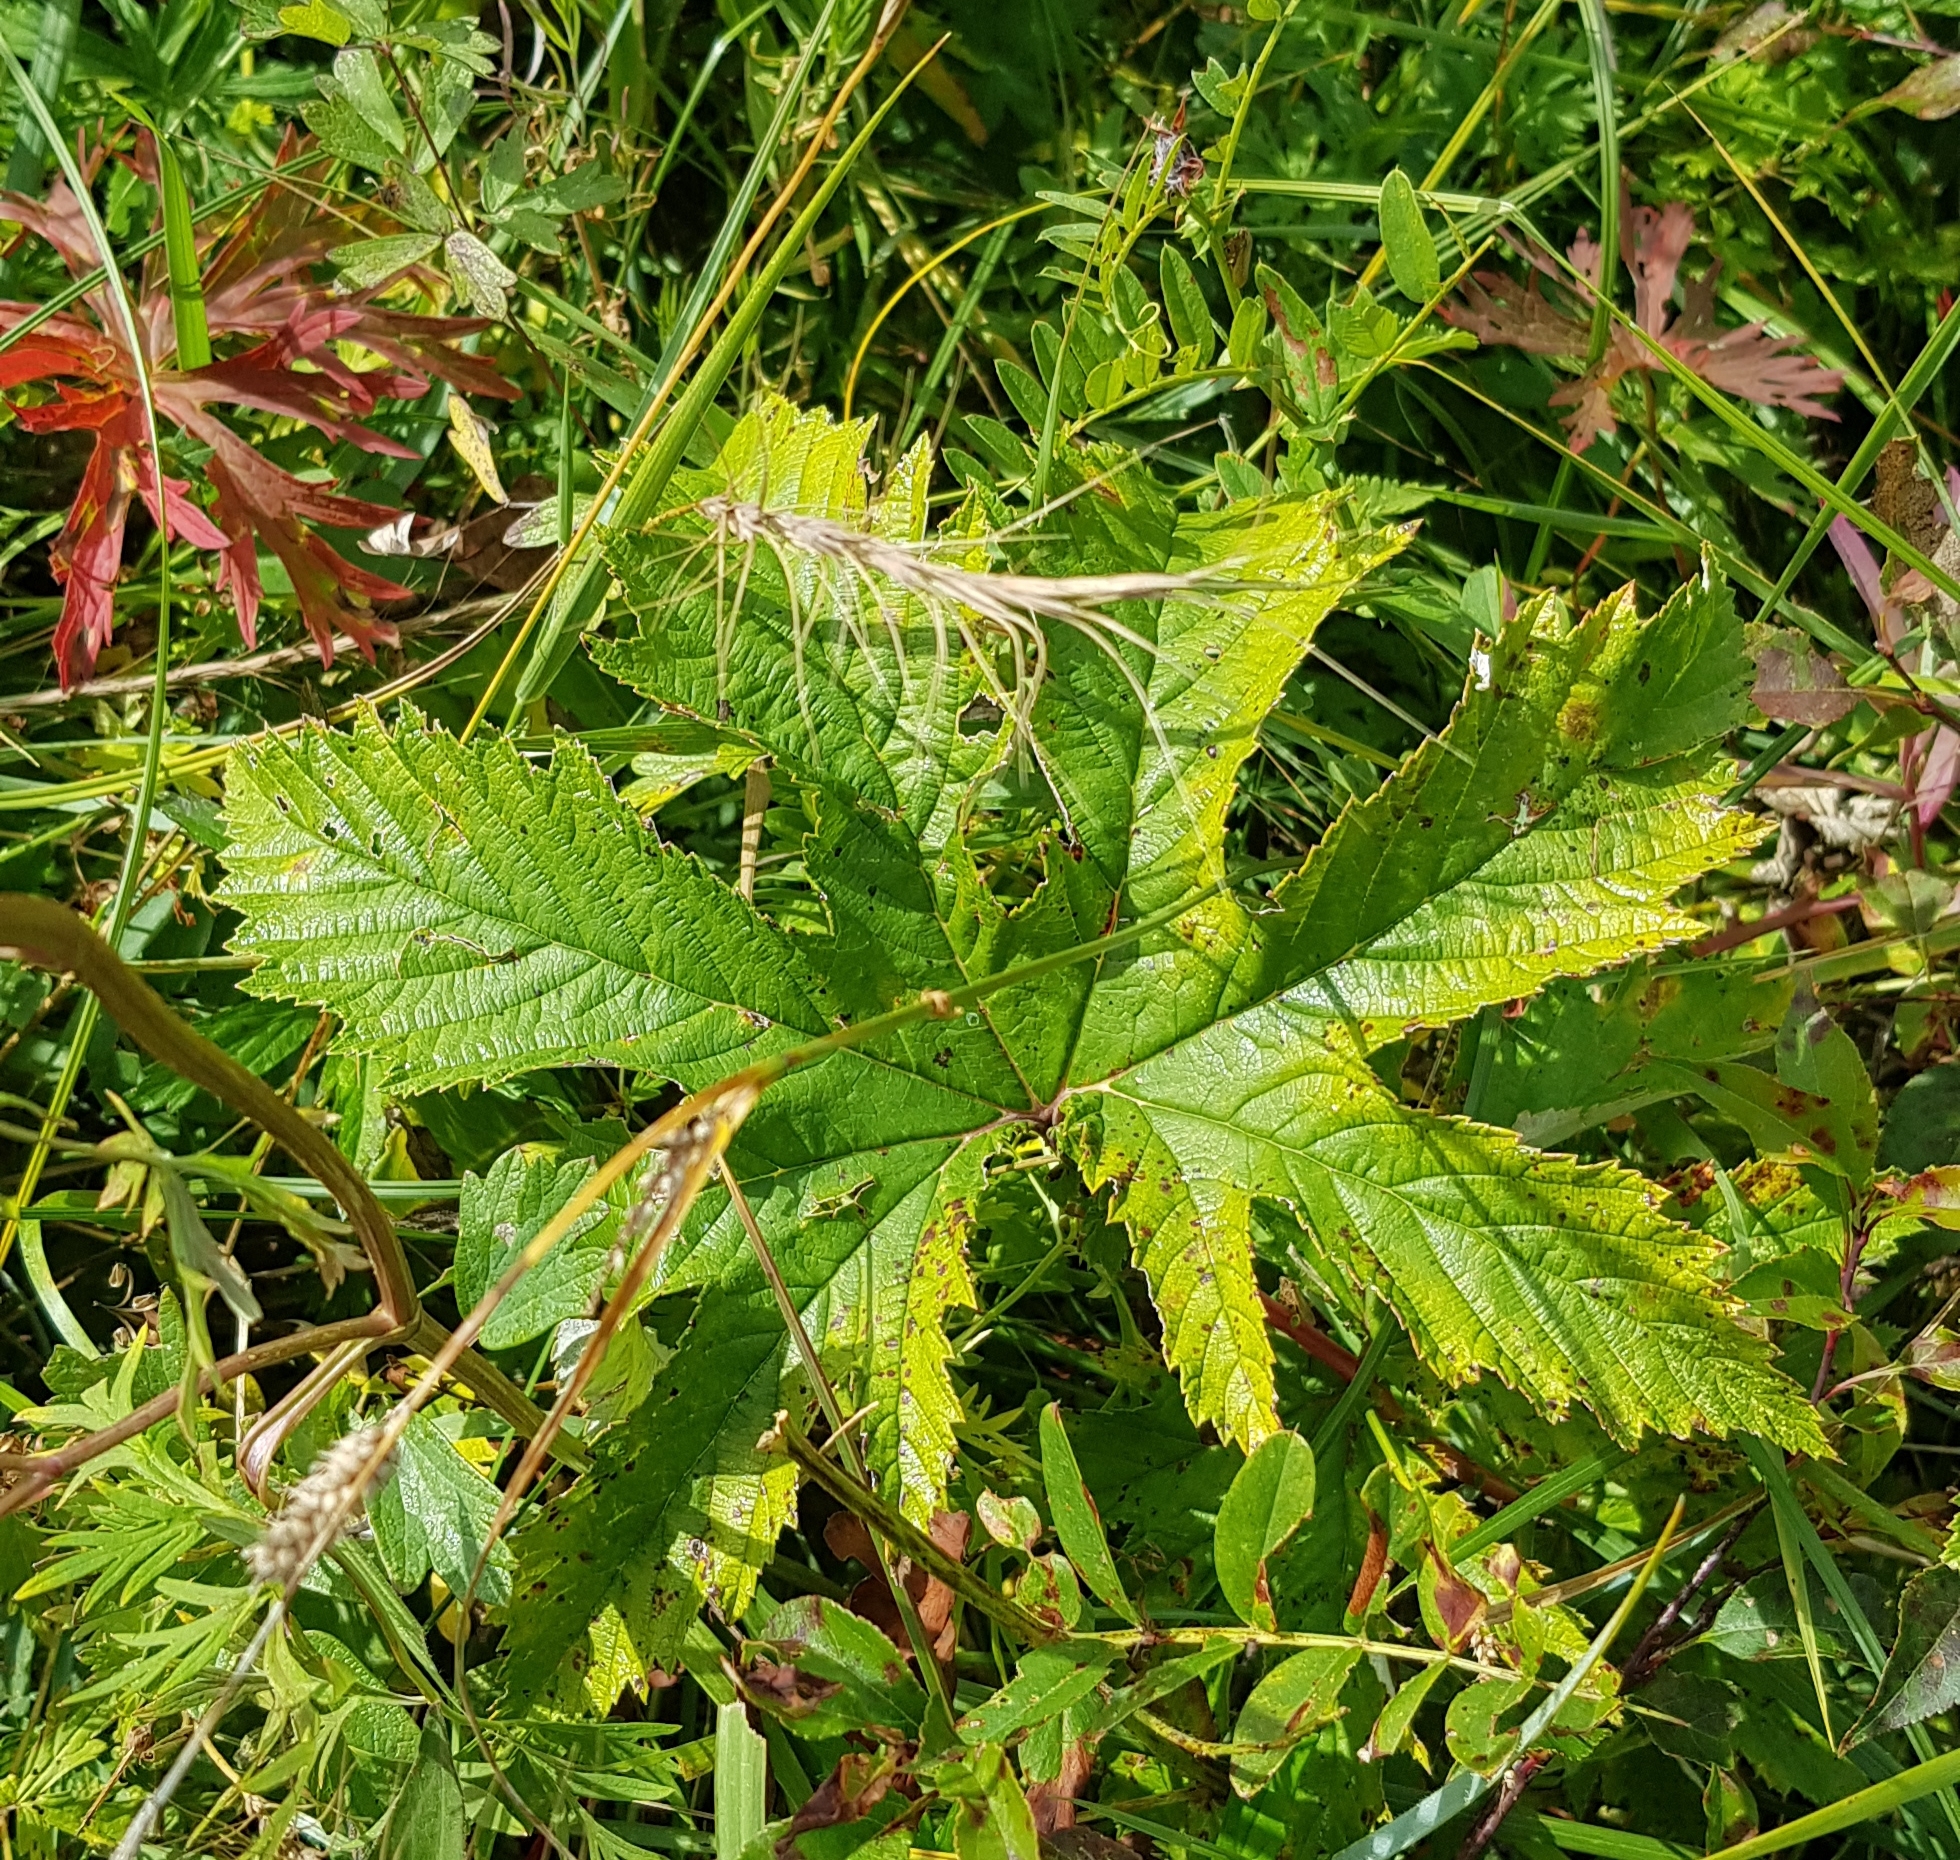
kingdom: Plantae
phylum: Tracheophyta
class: Magnoliopsida
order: Rosales
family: Rosaceae
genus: Filipendula
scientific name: Filipendula digitata
